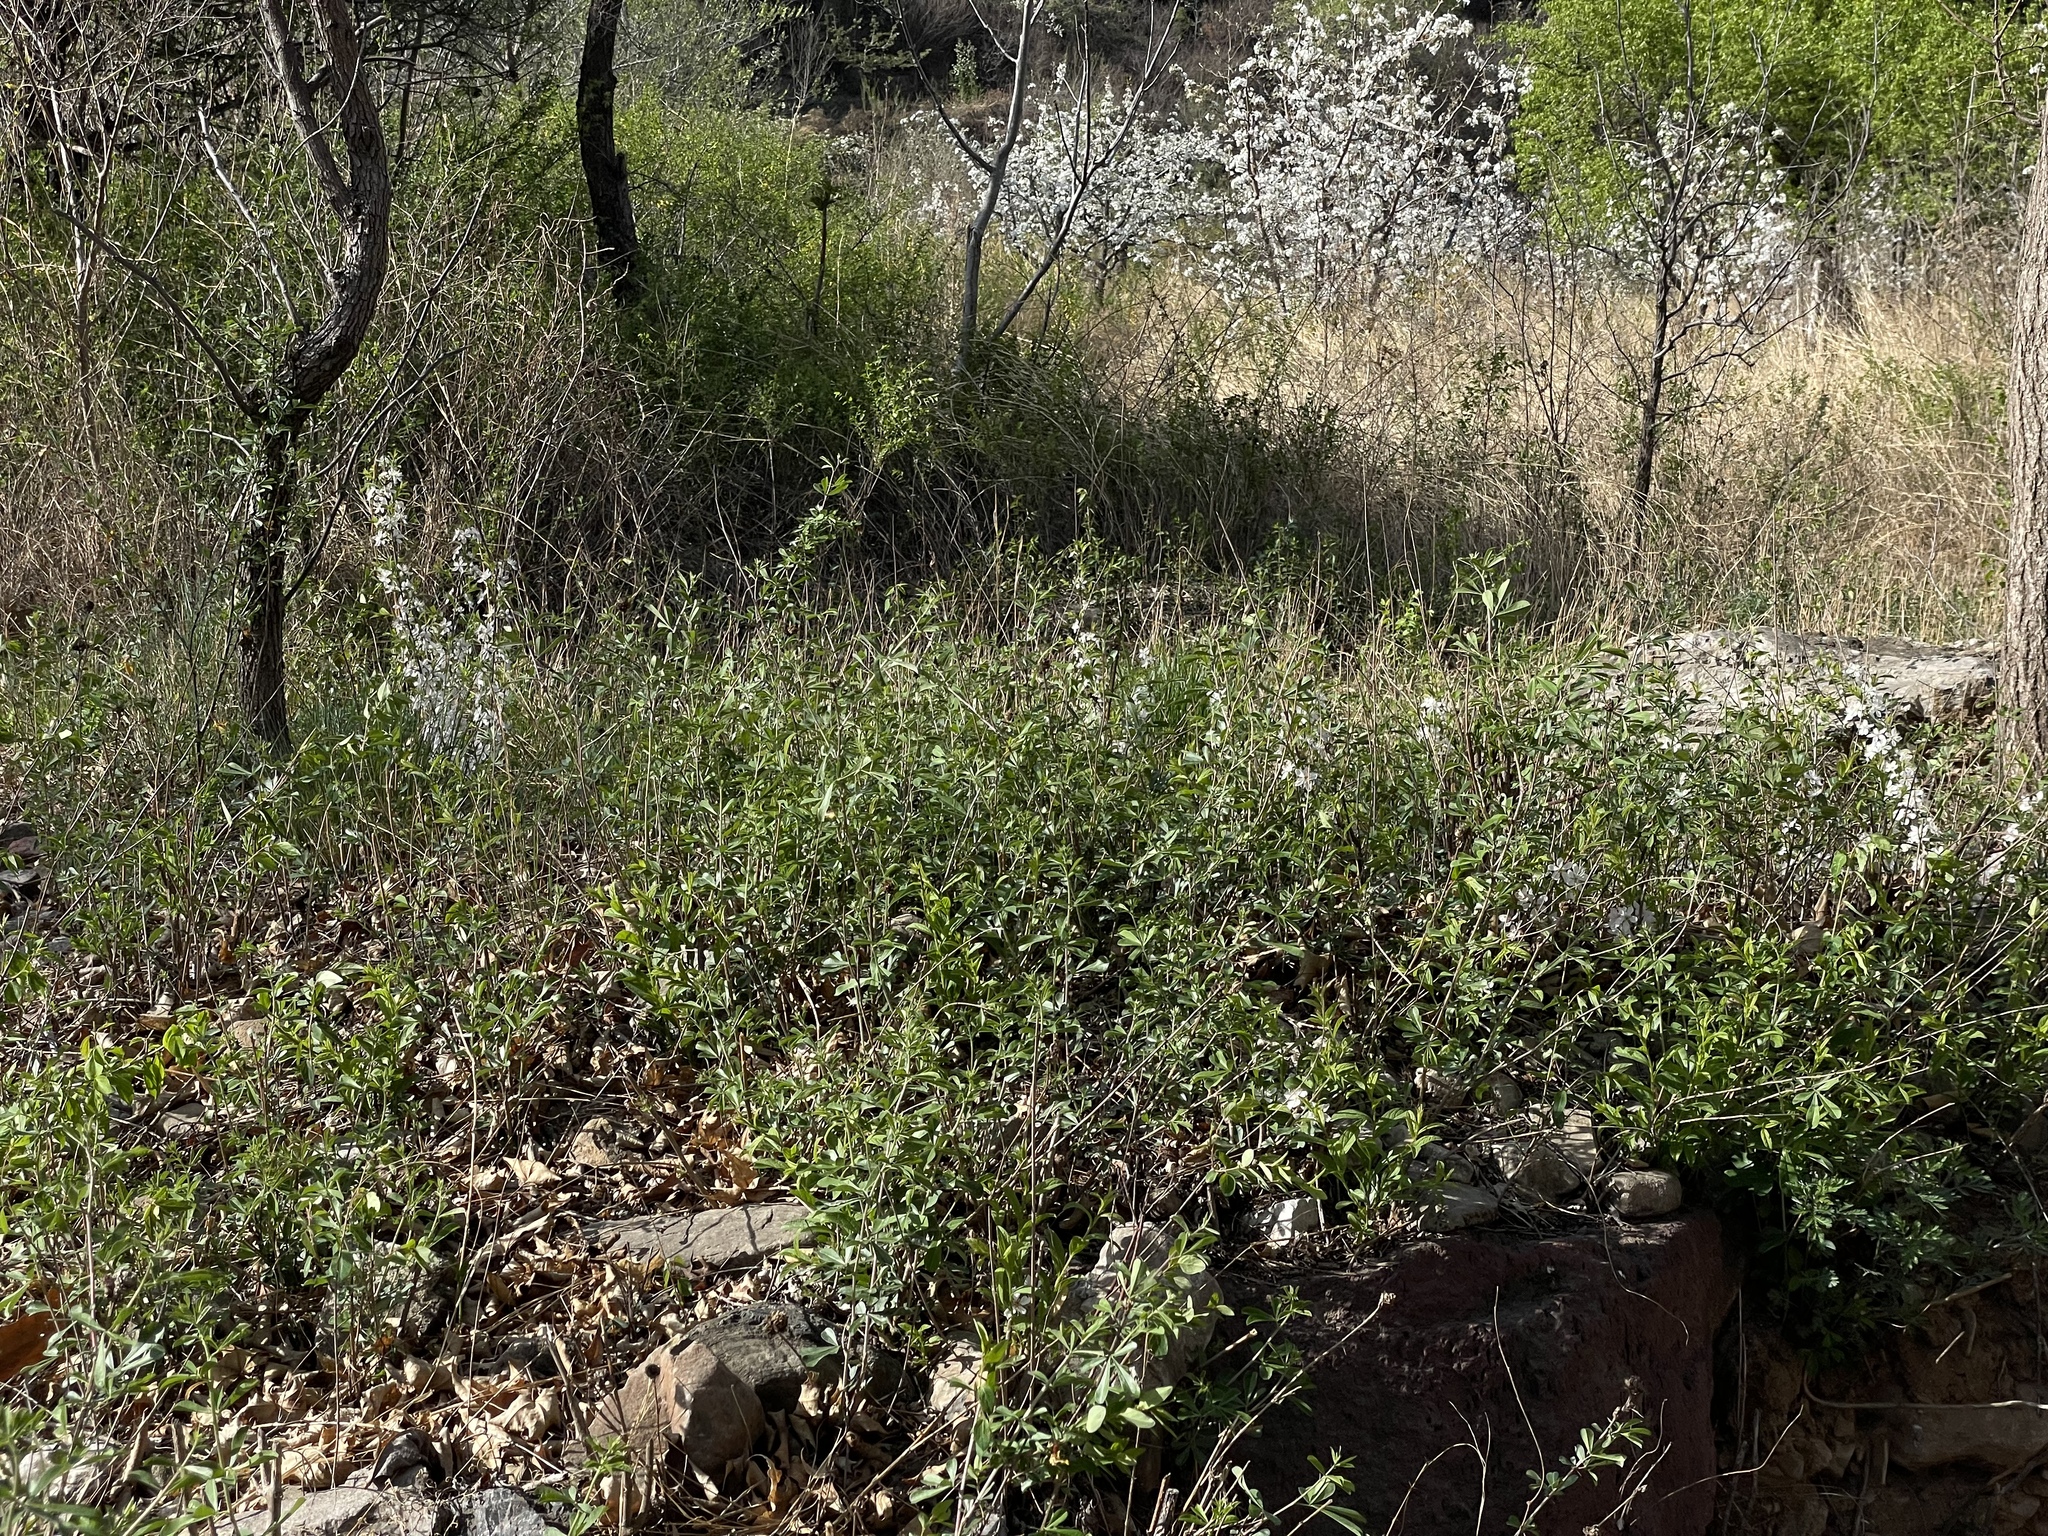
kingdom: Plantae
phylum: Tracheophyta
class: Magnoliopsida
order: Rosales
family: Rosaceae
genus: Prunus
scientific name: Prunus humilis
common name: Humble bush cherry
